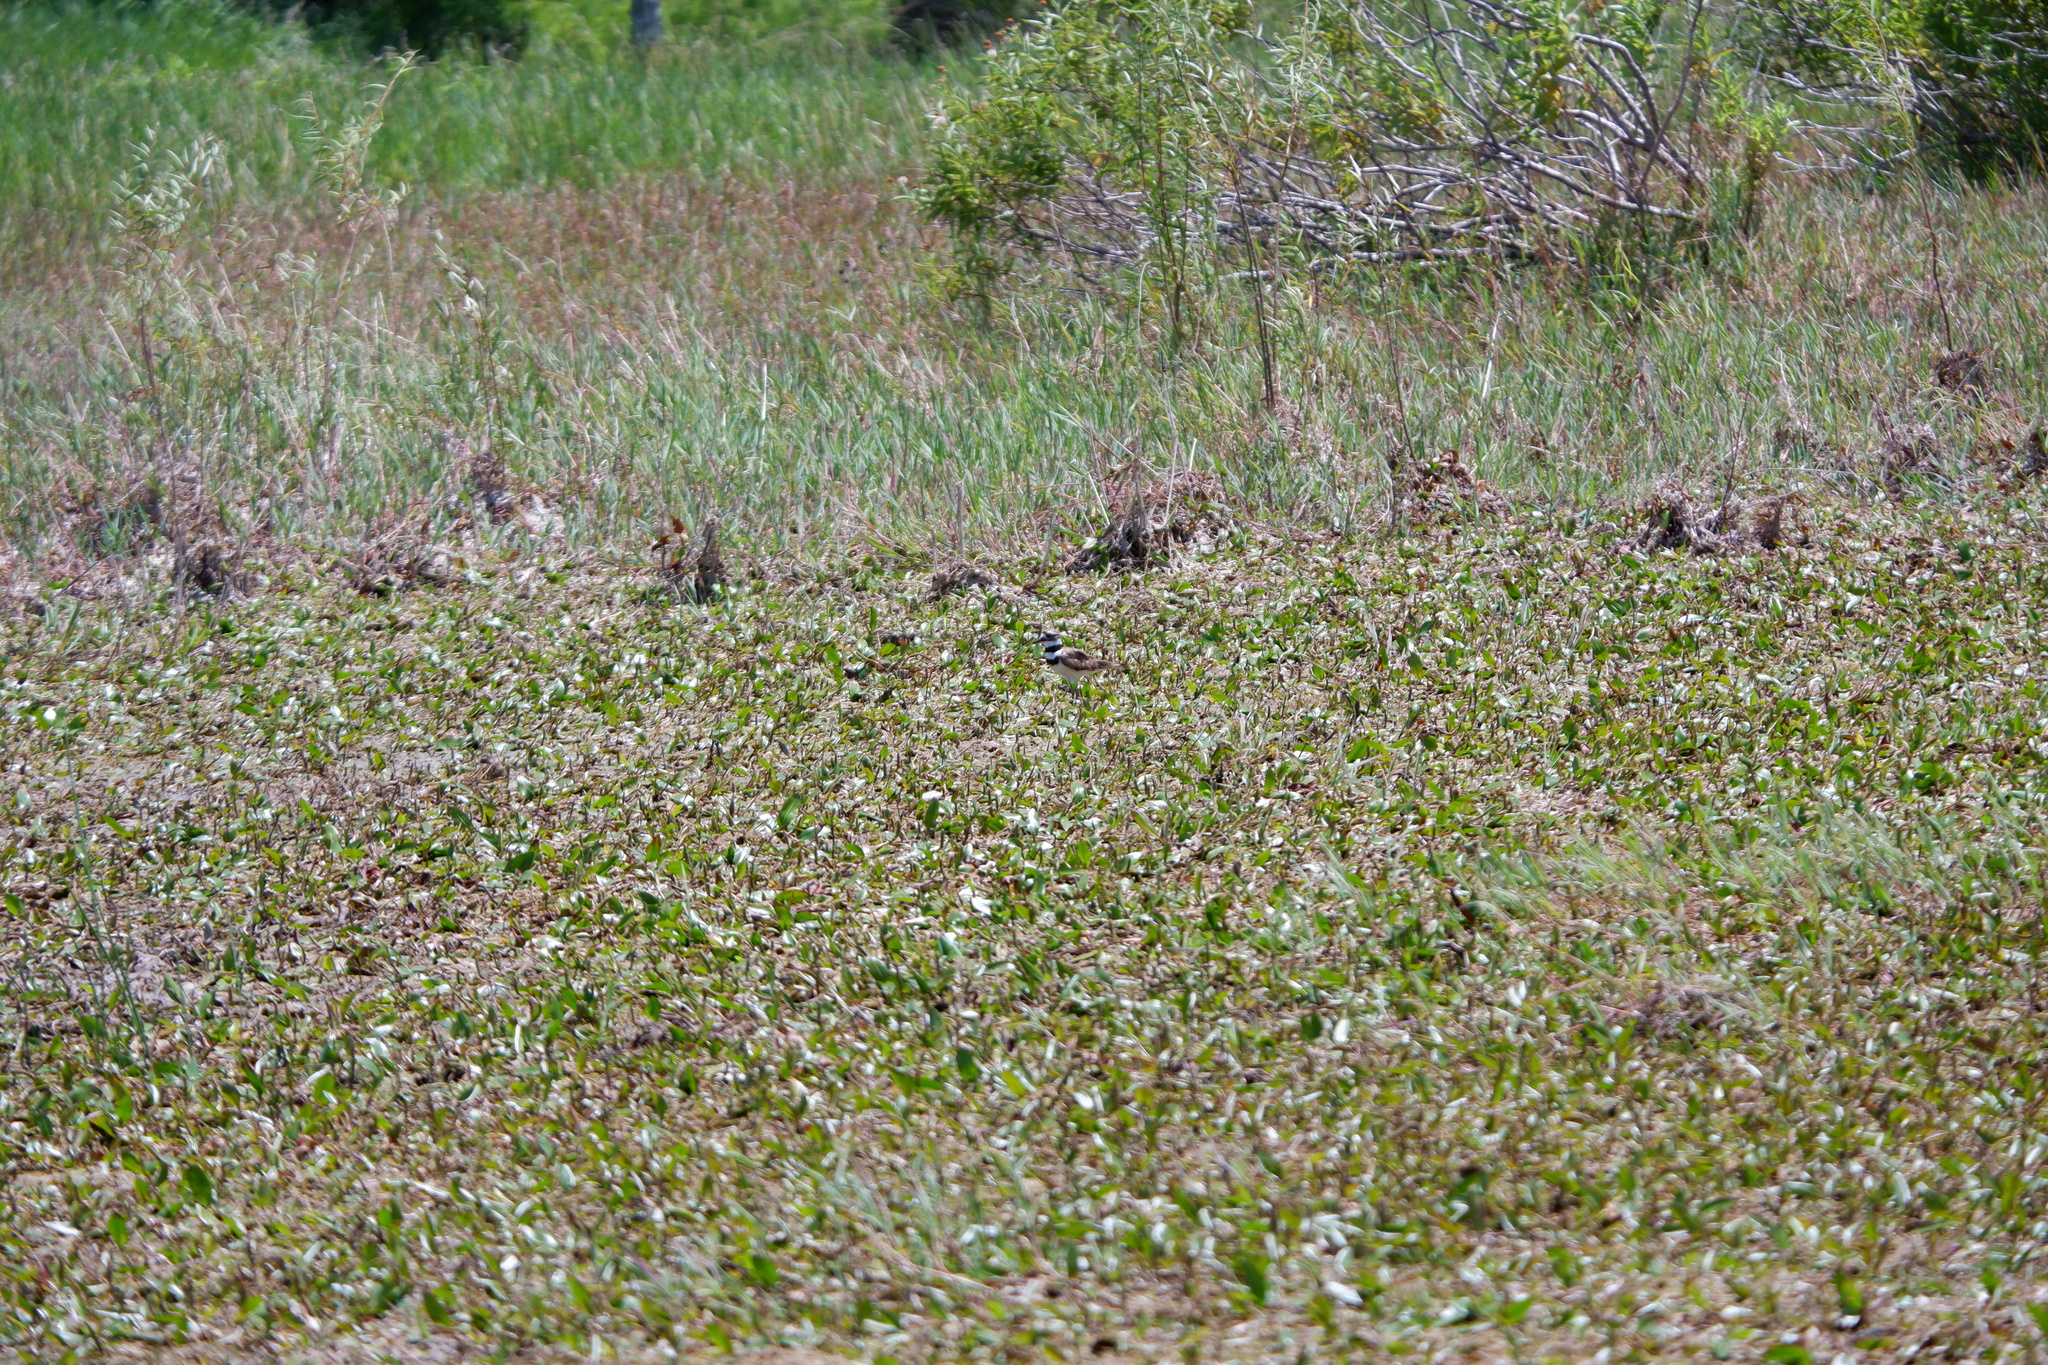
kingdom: Animalia
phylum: Chordata
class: Aves
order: Charadriiformes
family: Charadriidae
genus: Charadrius
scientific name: Charadrius vociferus
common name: Killdeer
